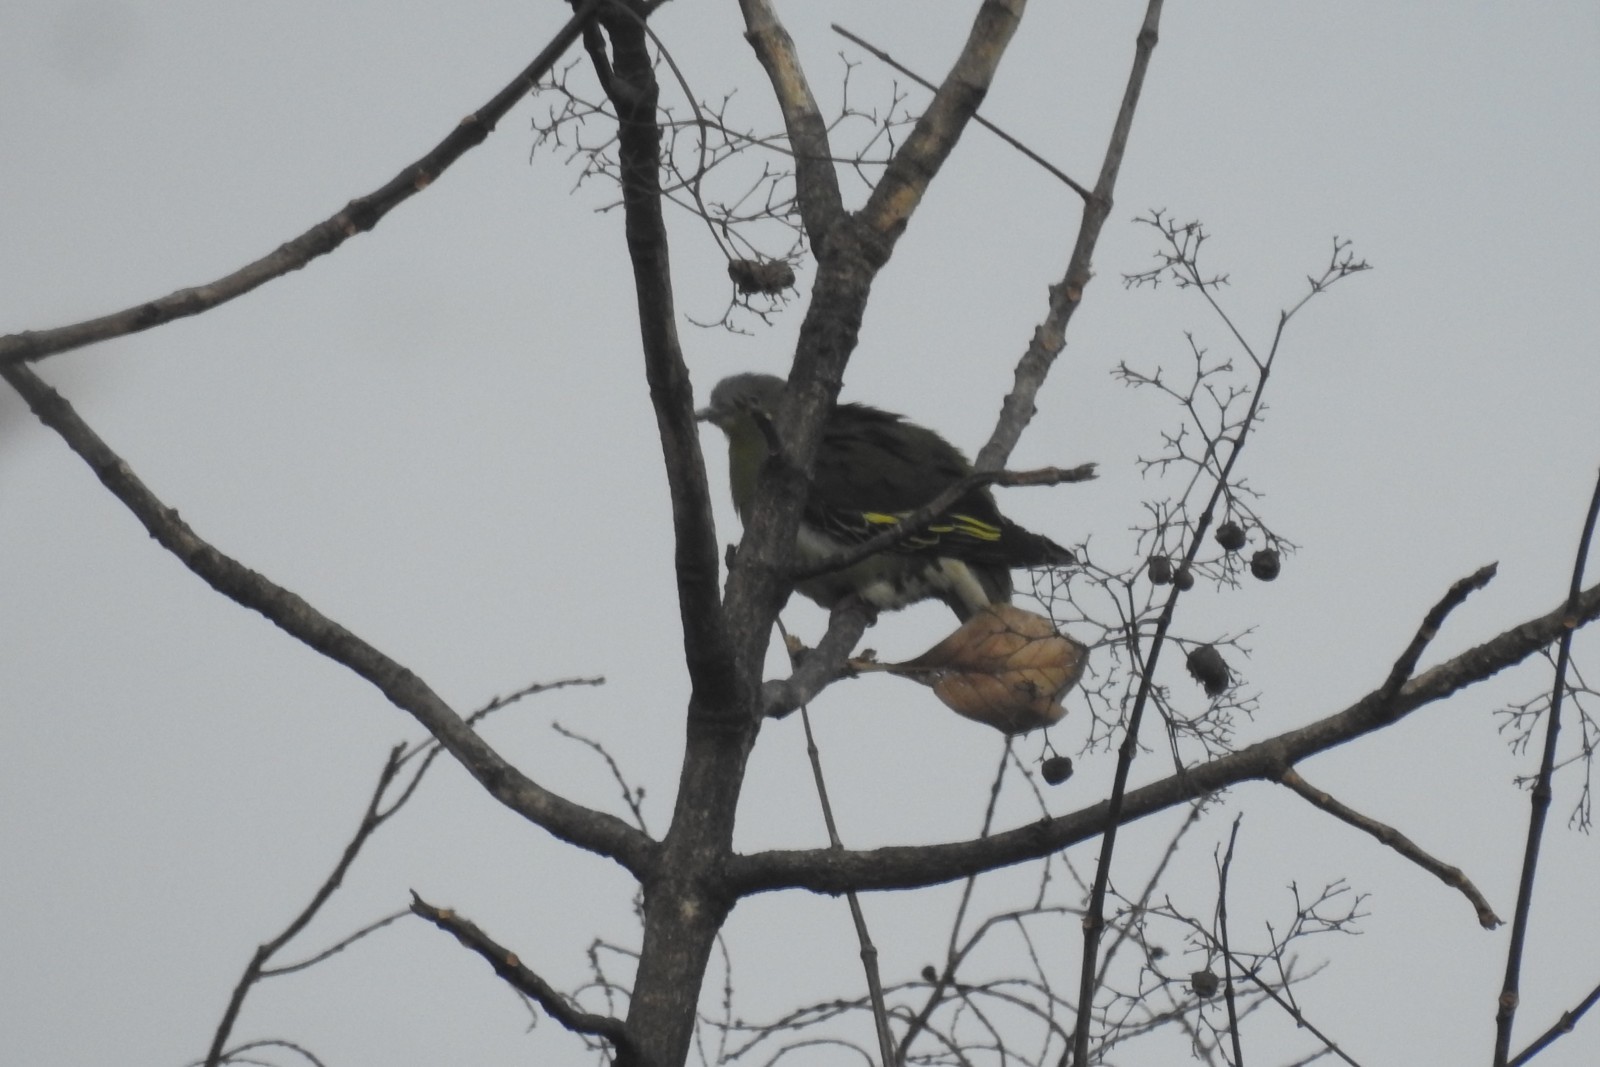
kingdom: Animalia
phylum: Chordata
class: Aves
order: Columbiformes
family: Columbidae
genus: Treron
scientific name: Treron affinis
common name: Grey-fronted green pigeon
